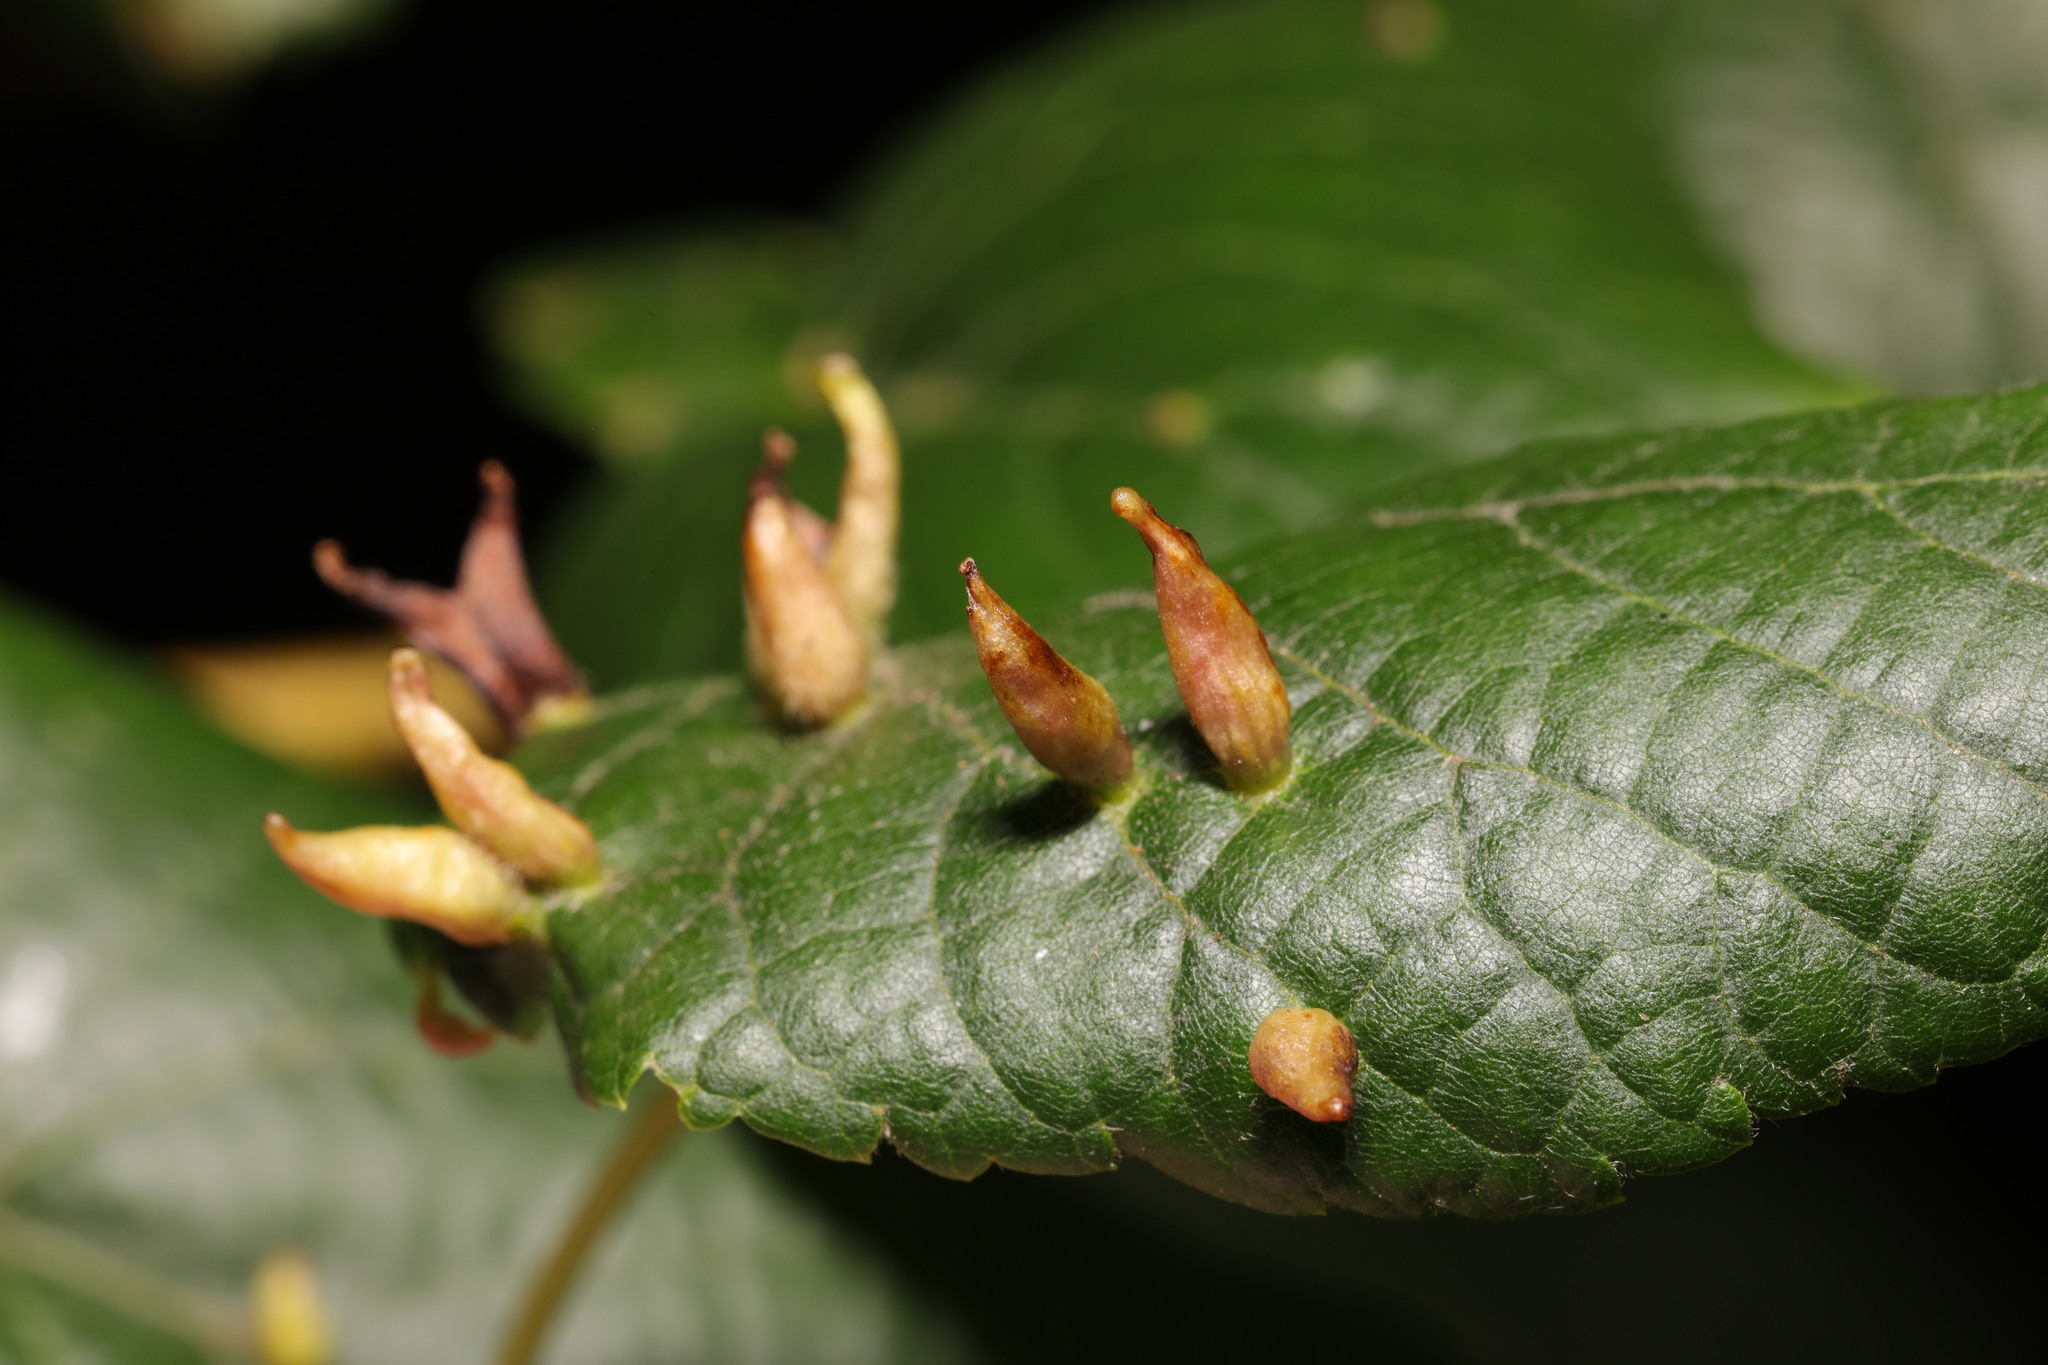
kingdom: Animalia
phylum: Arthropoda
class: Arachnida
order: Trombidiformes
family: Eriophyidae
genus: Eriophyes
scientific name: Eriophyes tiliae
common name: Red nail gall mite
